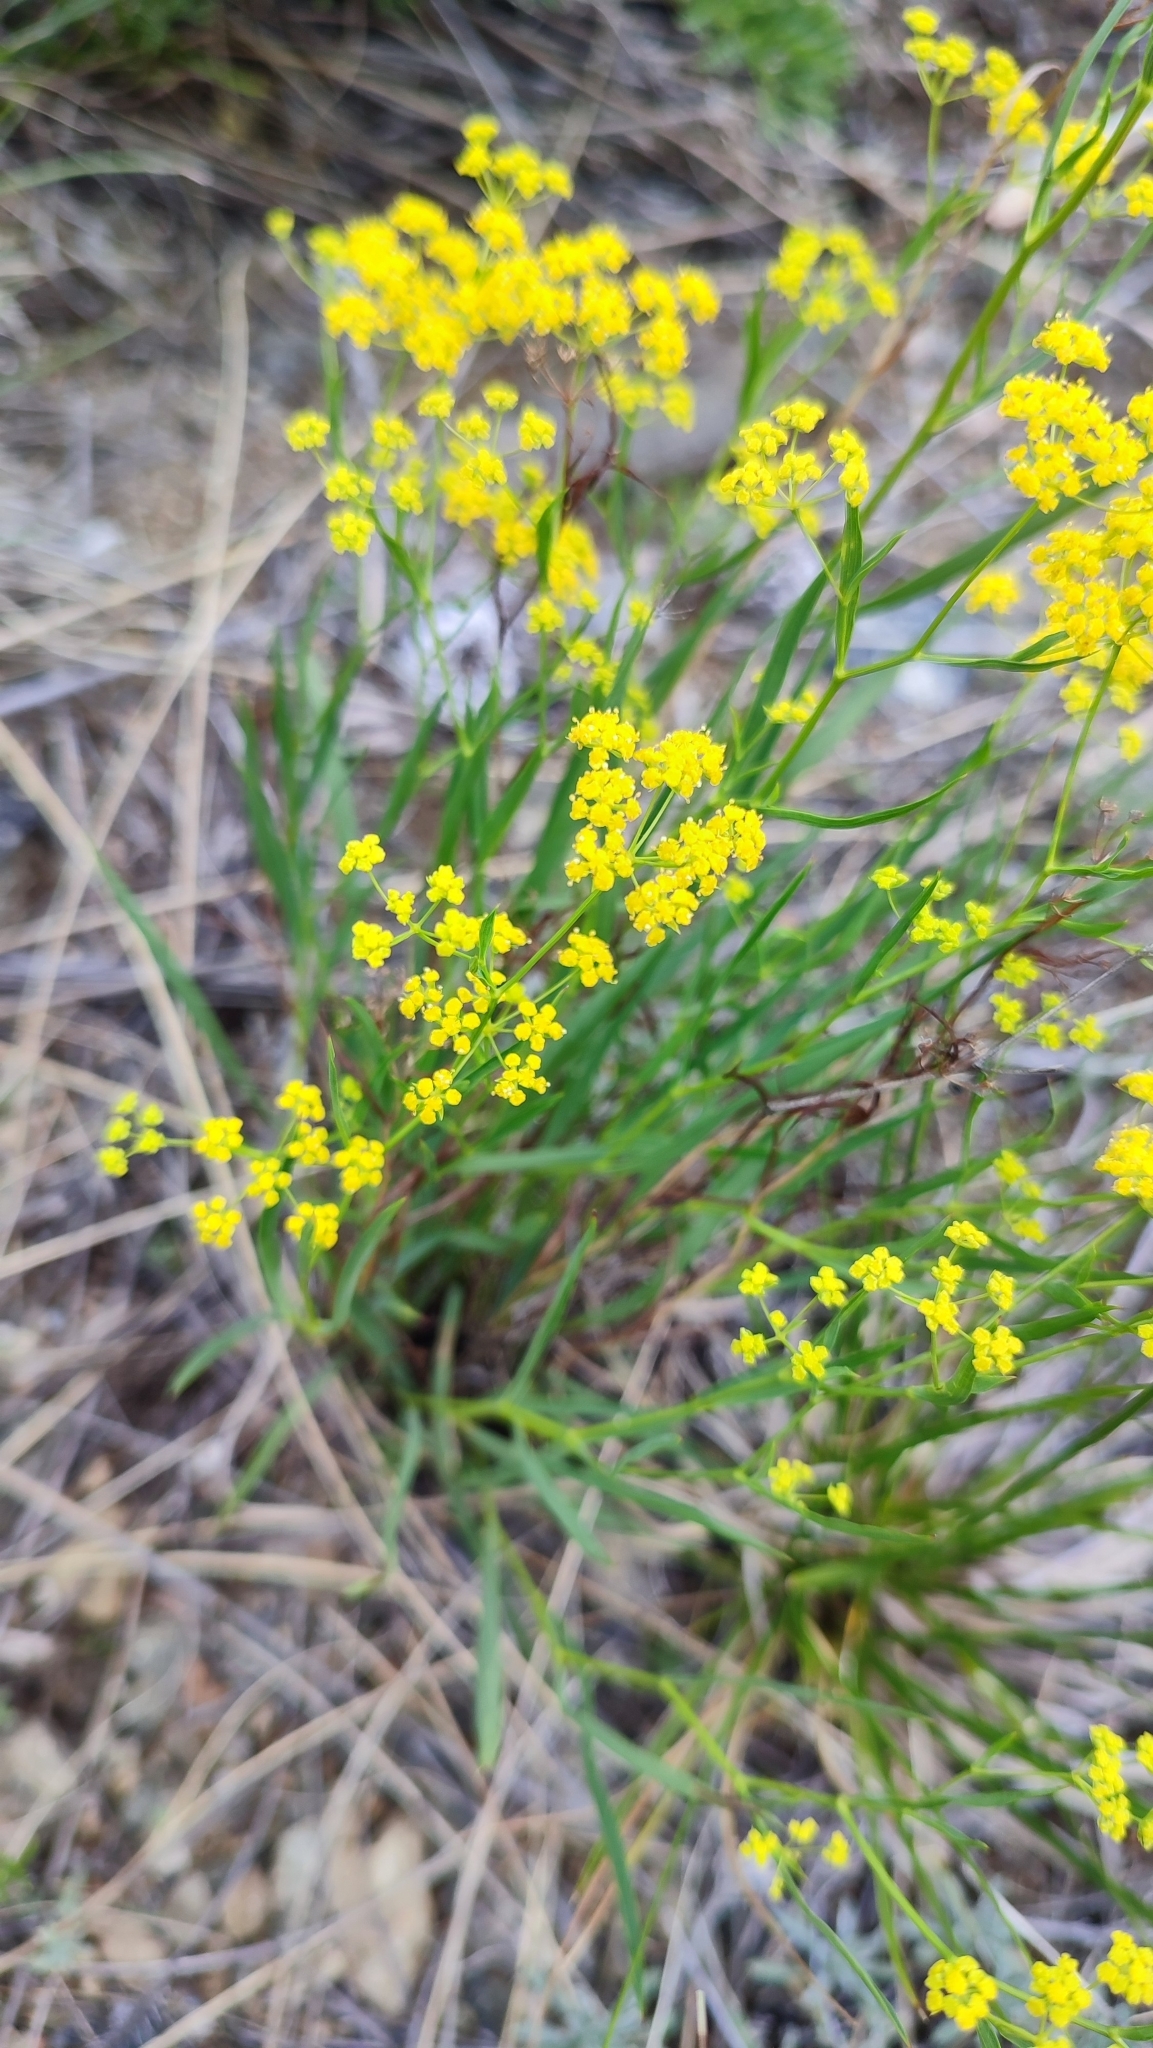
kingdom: Plantae
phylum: Tracheophyta
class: Magnoliopsida
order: Apiales
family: Apiaceae
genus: Bupleurum
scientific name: Bupleurum scorzonerifolium
